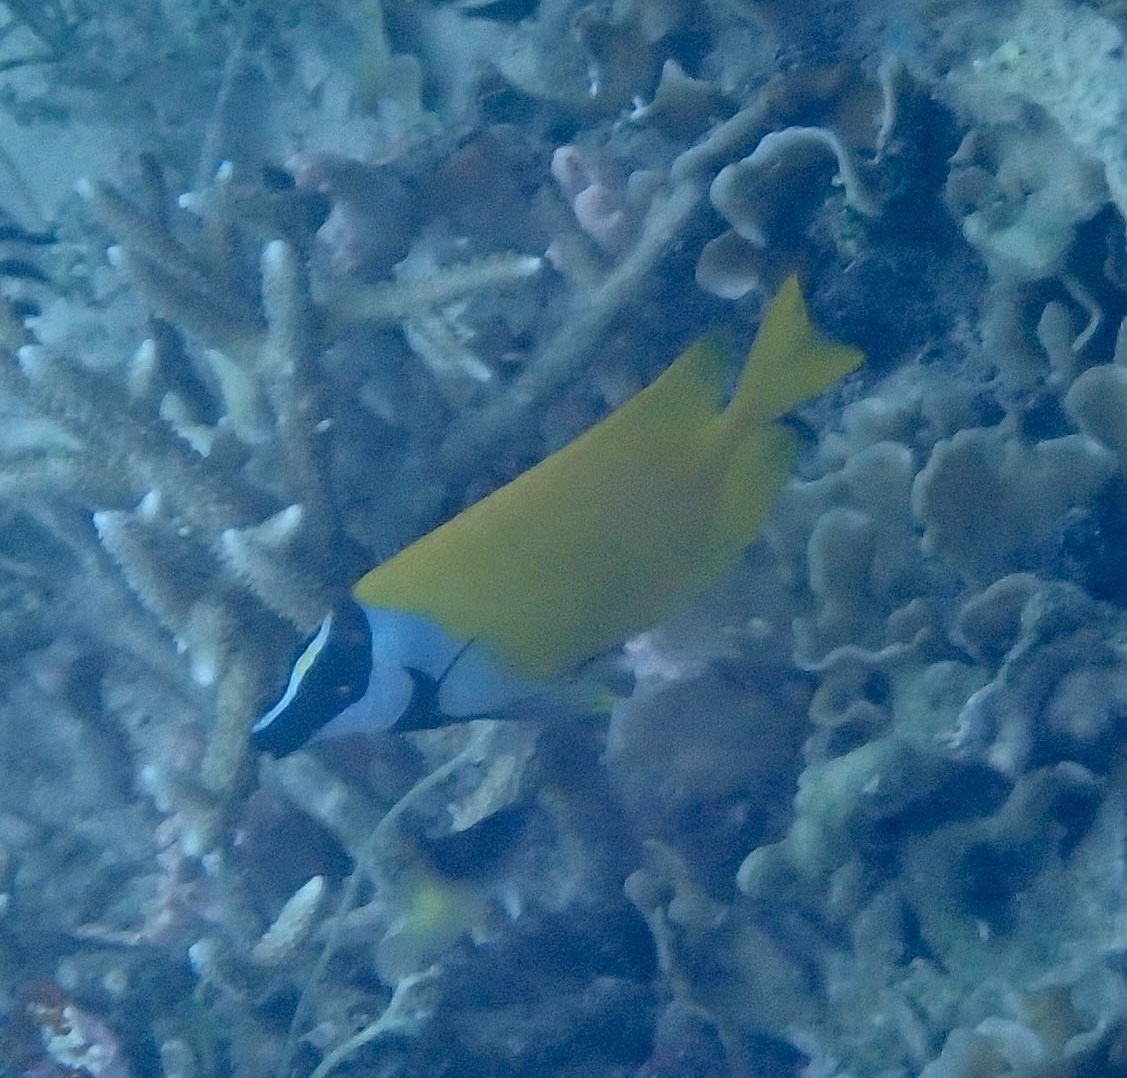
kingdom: Animalia
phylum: Chordata
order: Perciformes
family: Siganidae
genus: Siganus
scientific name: Siganus vulpinus
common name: Foxface
